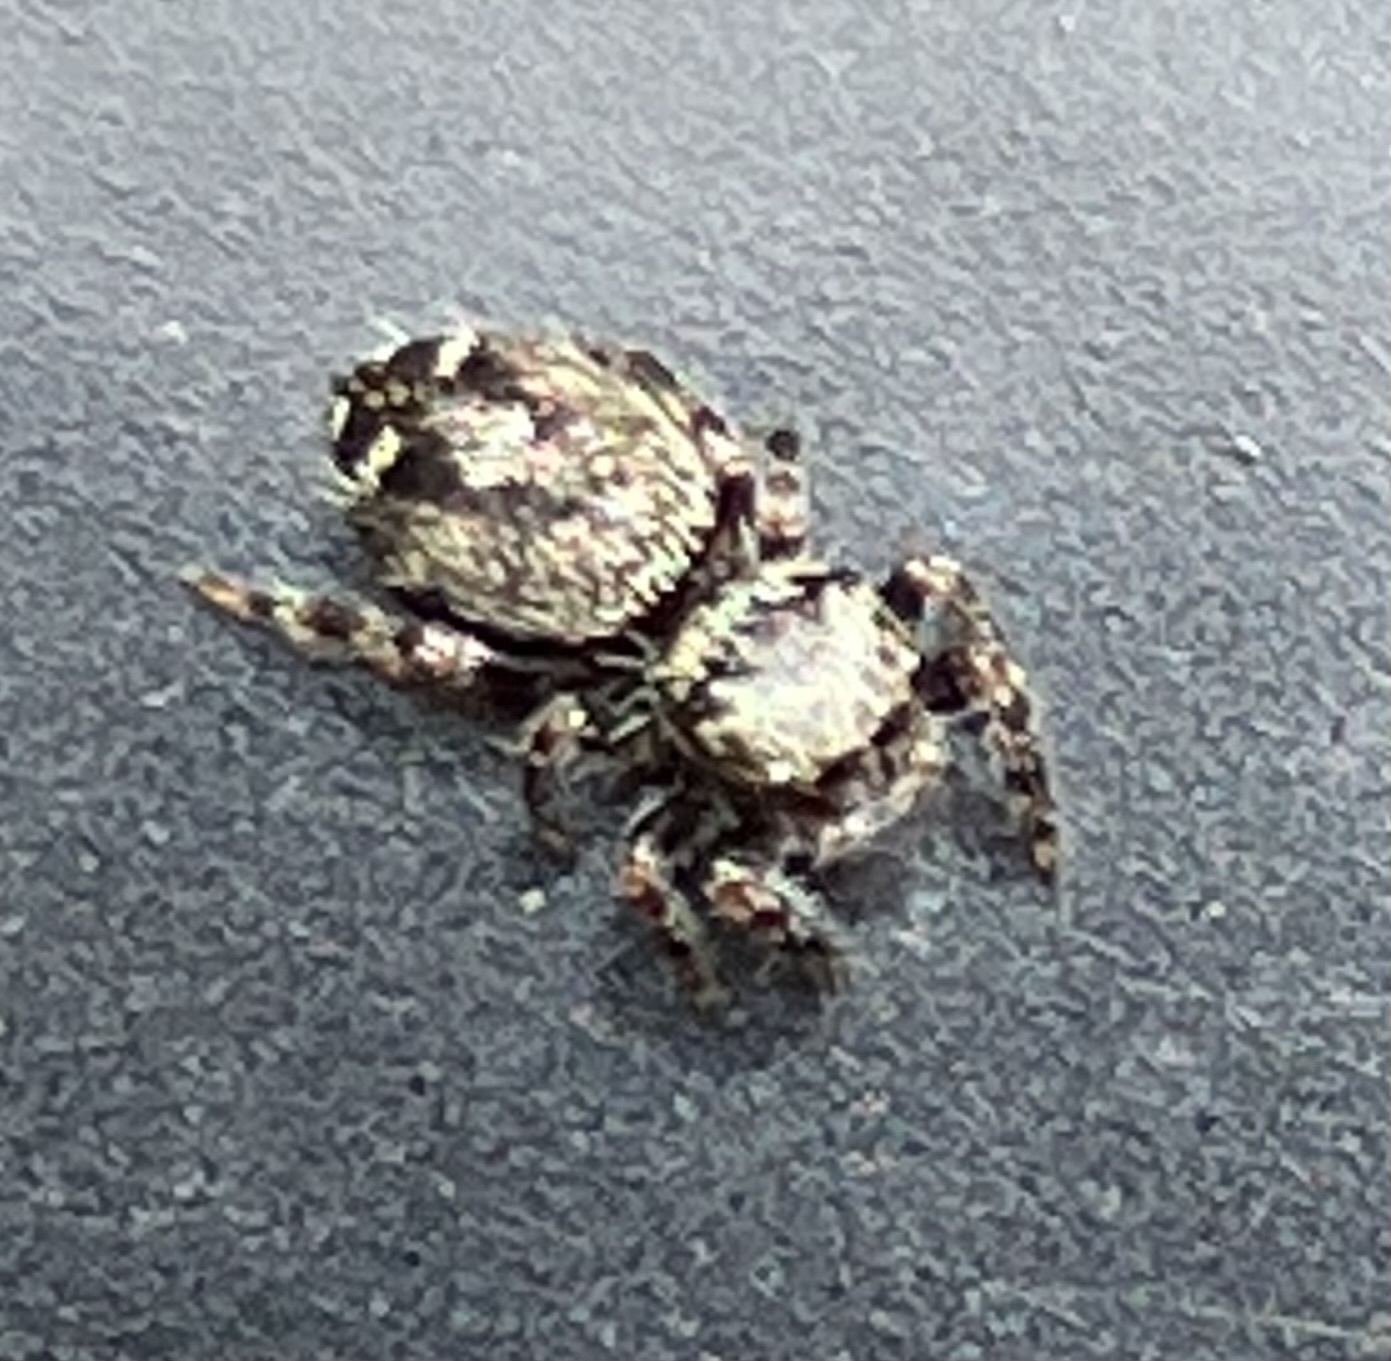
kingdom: Animalia
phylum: Arthropoda
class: Arachnida
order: Araneae
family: Salticidae
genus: Phidippus
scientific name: Phidippus putnami
